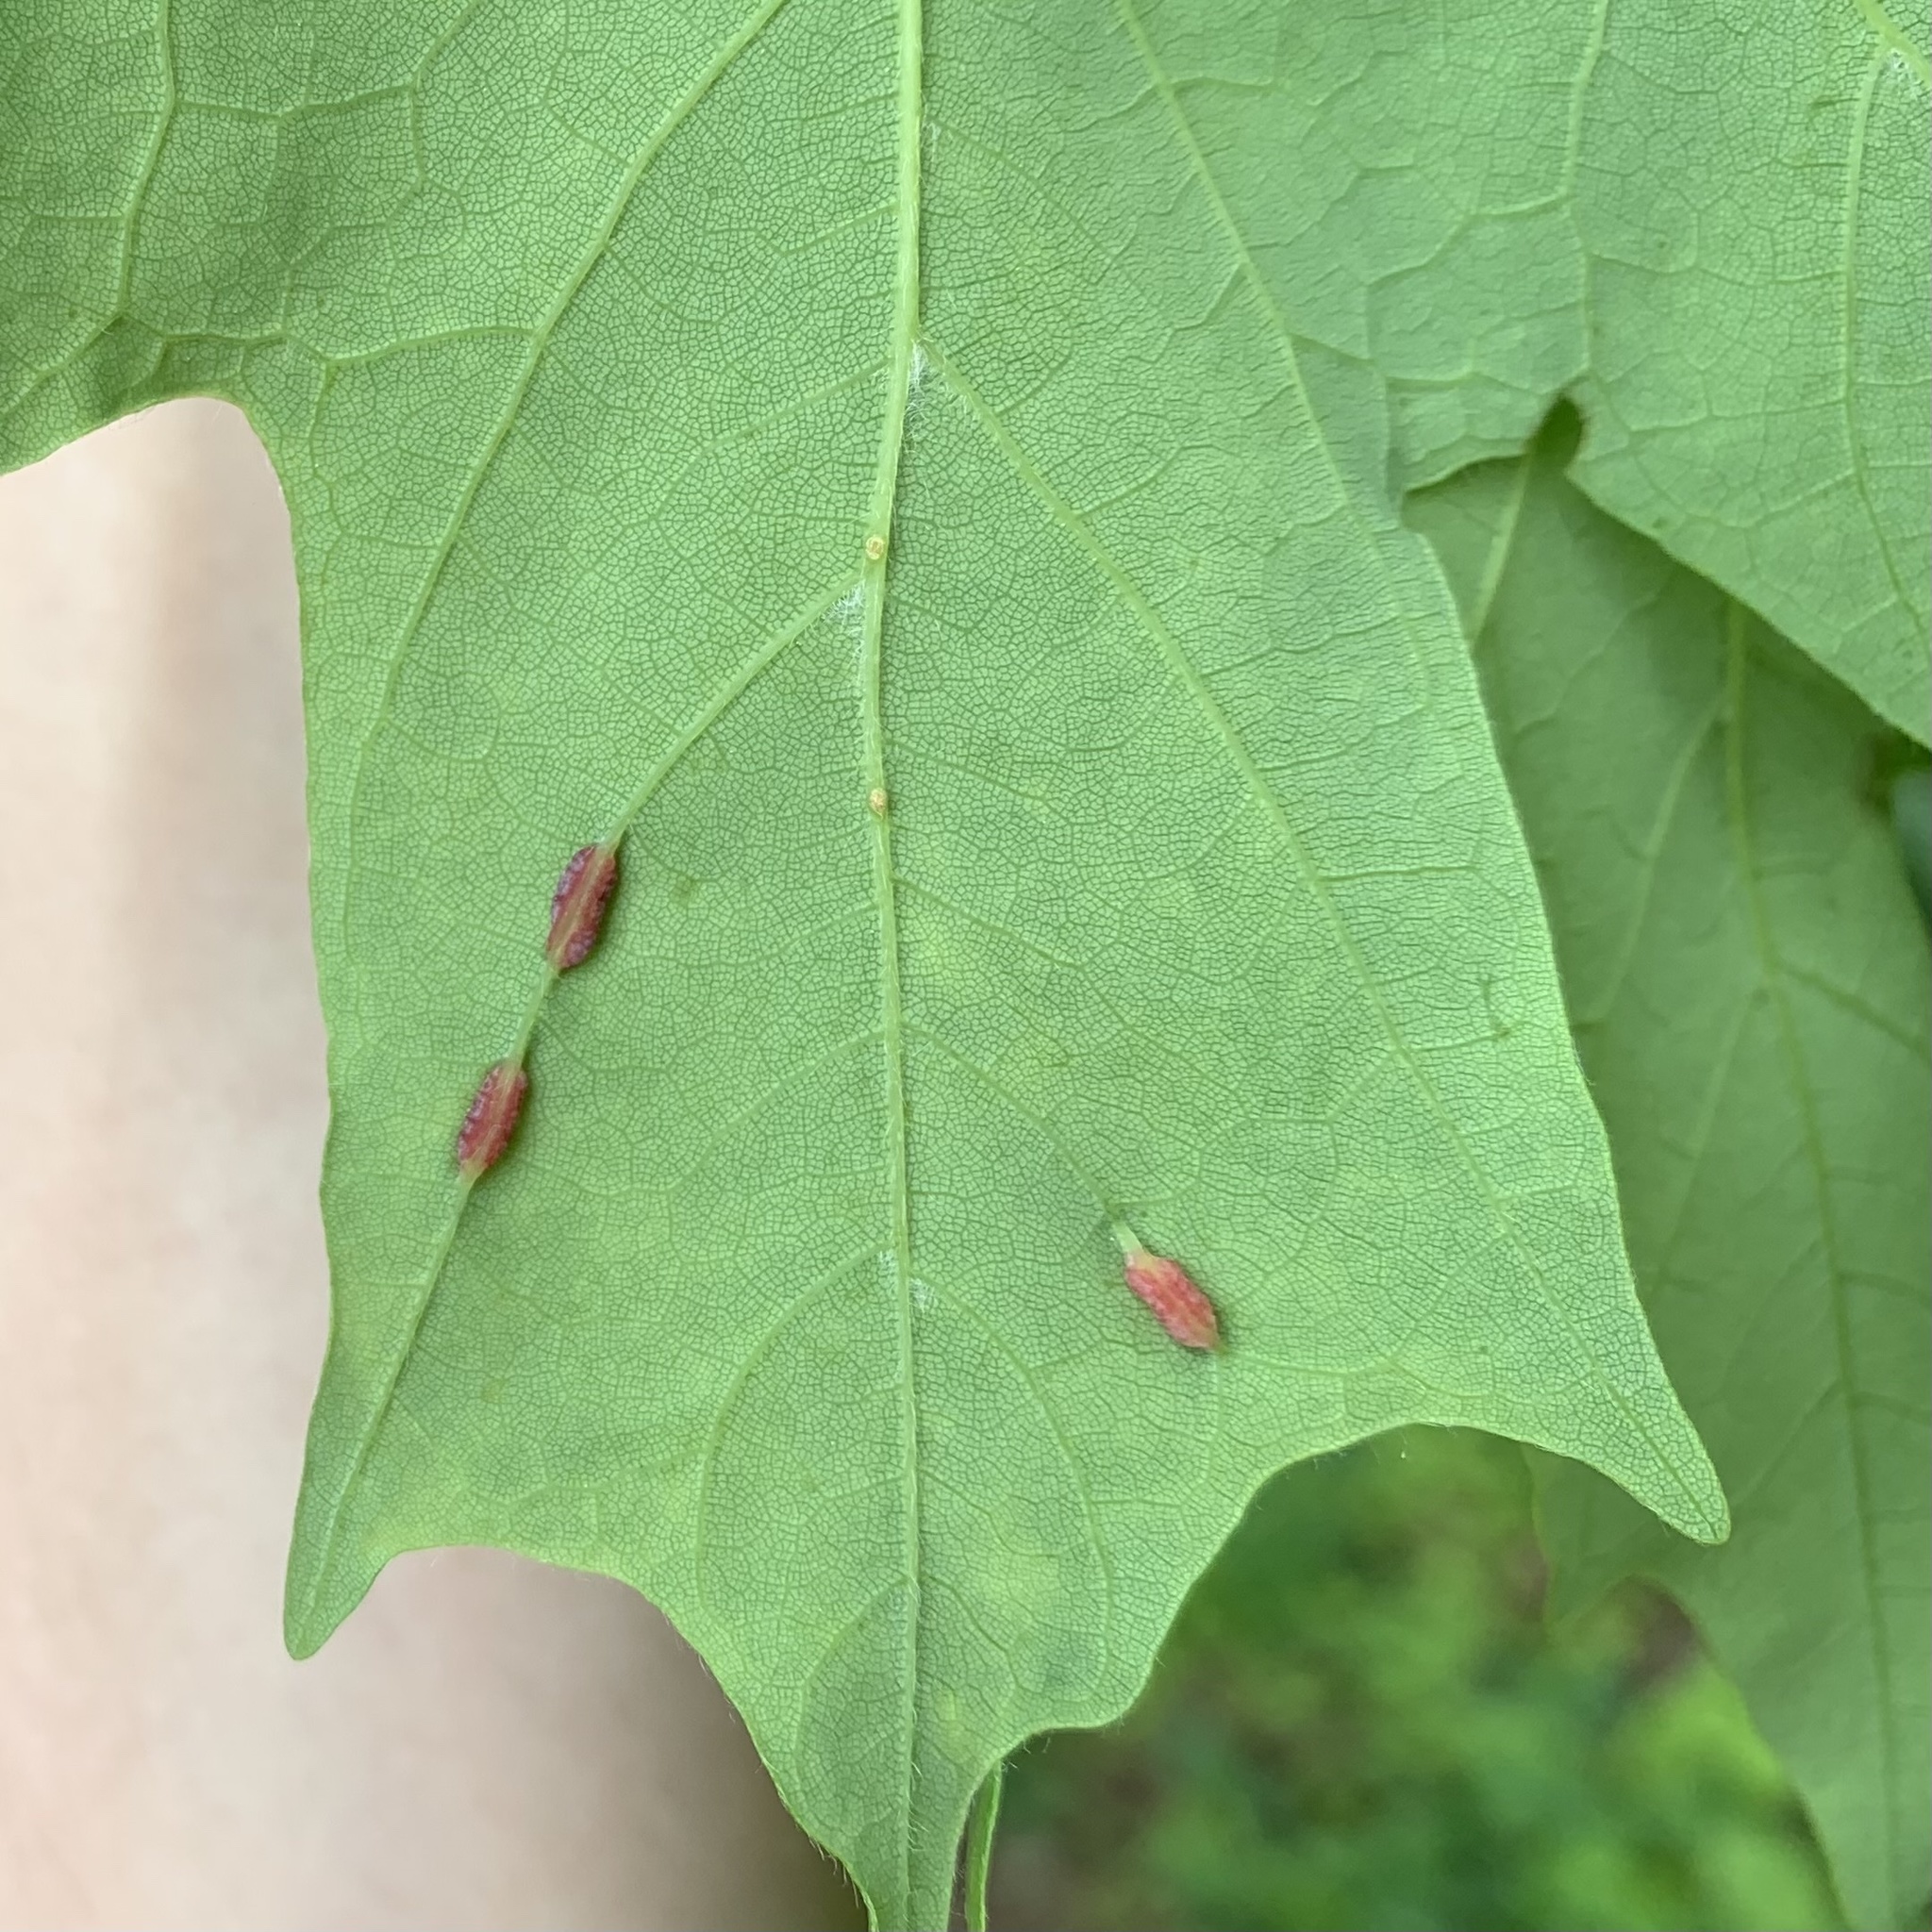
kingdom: Animalia
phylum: Arthropoda
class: Insecta
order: Diptera
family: Cecidomyiidae
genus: Dasineura
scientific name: Dasineura communis
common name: Gouty vein midge
